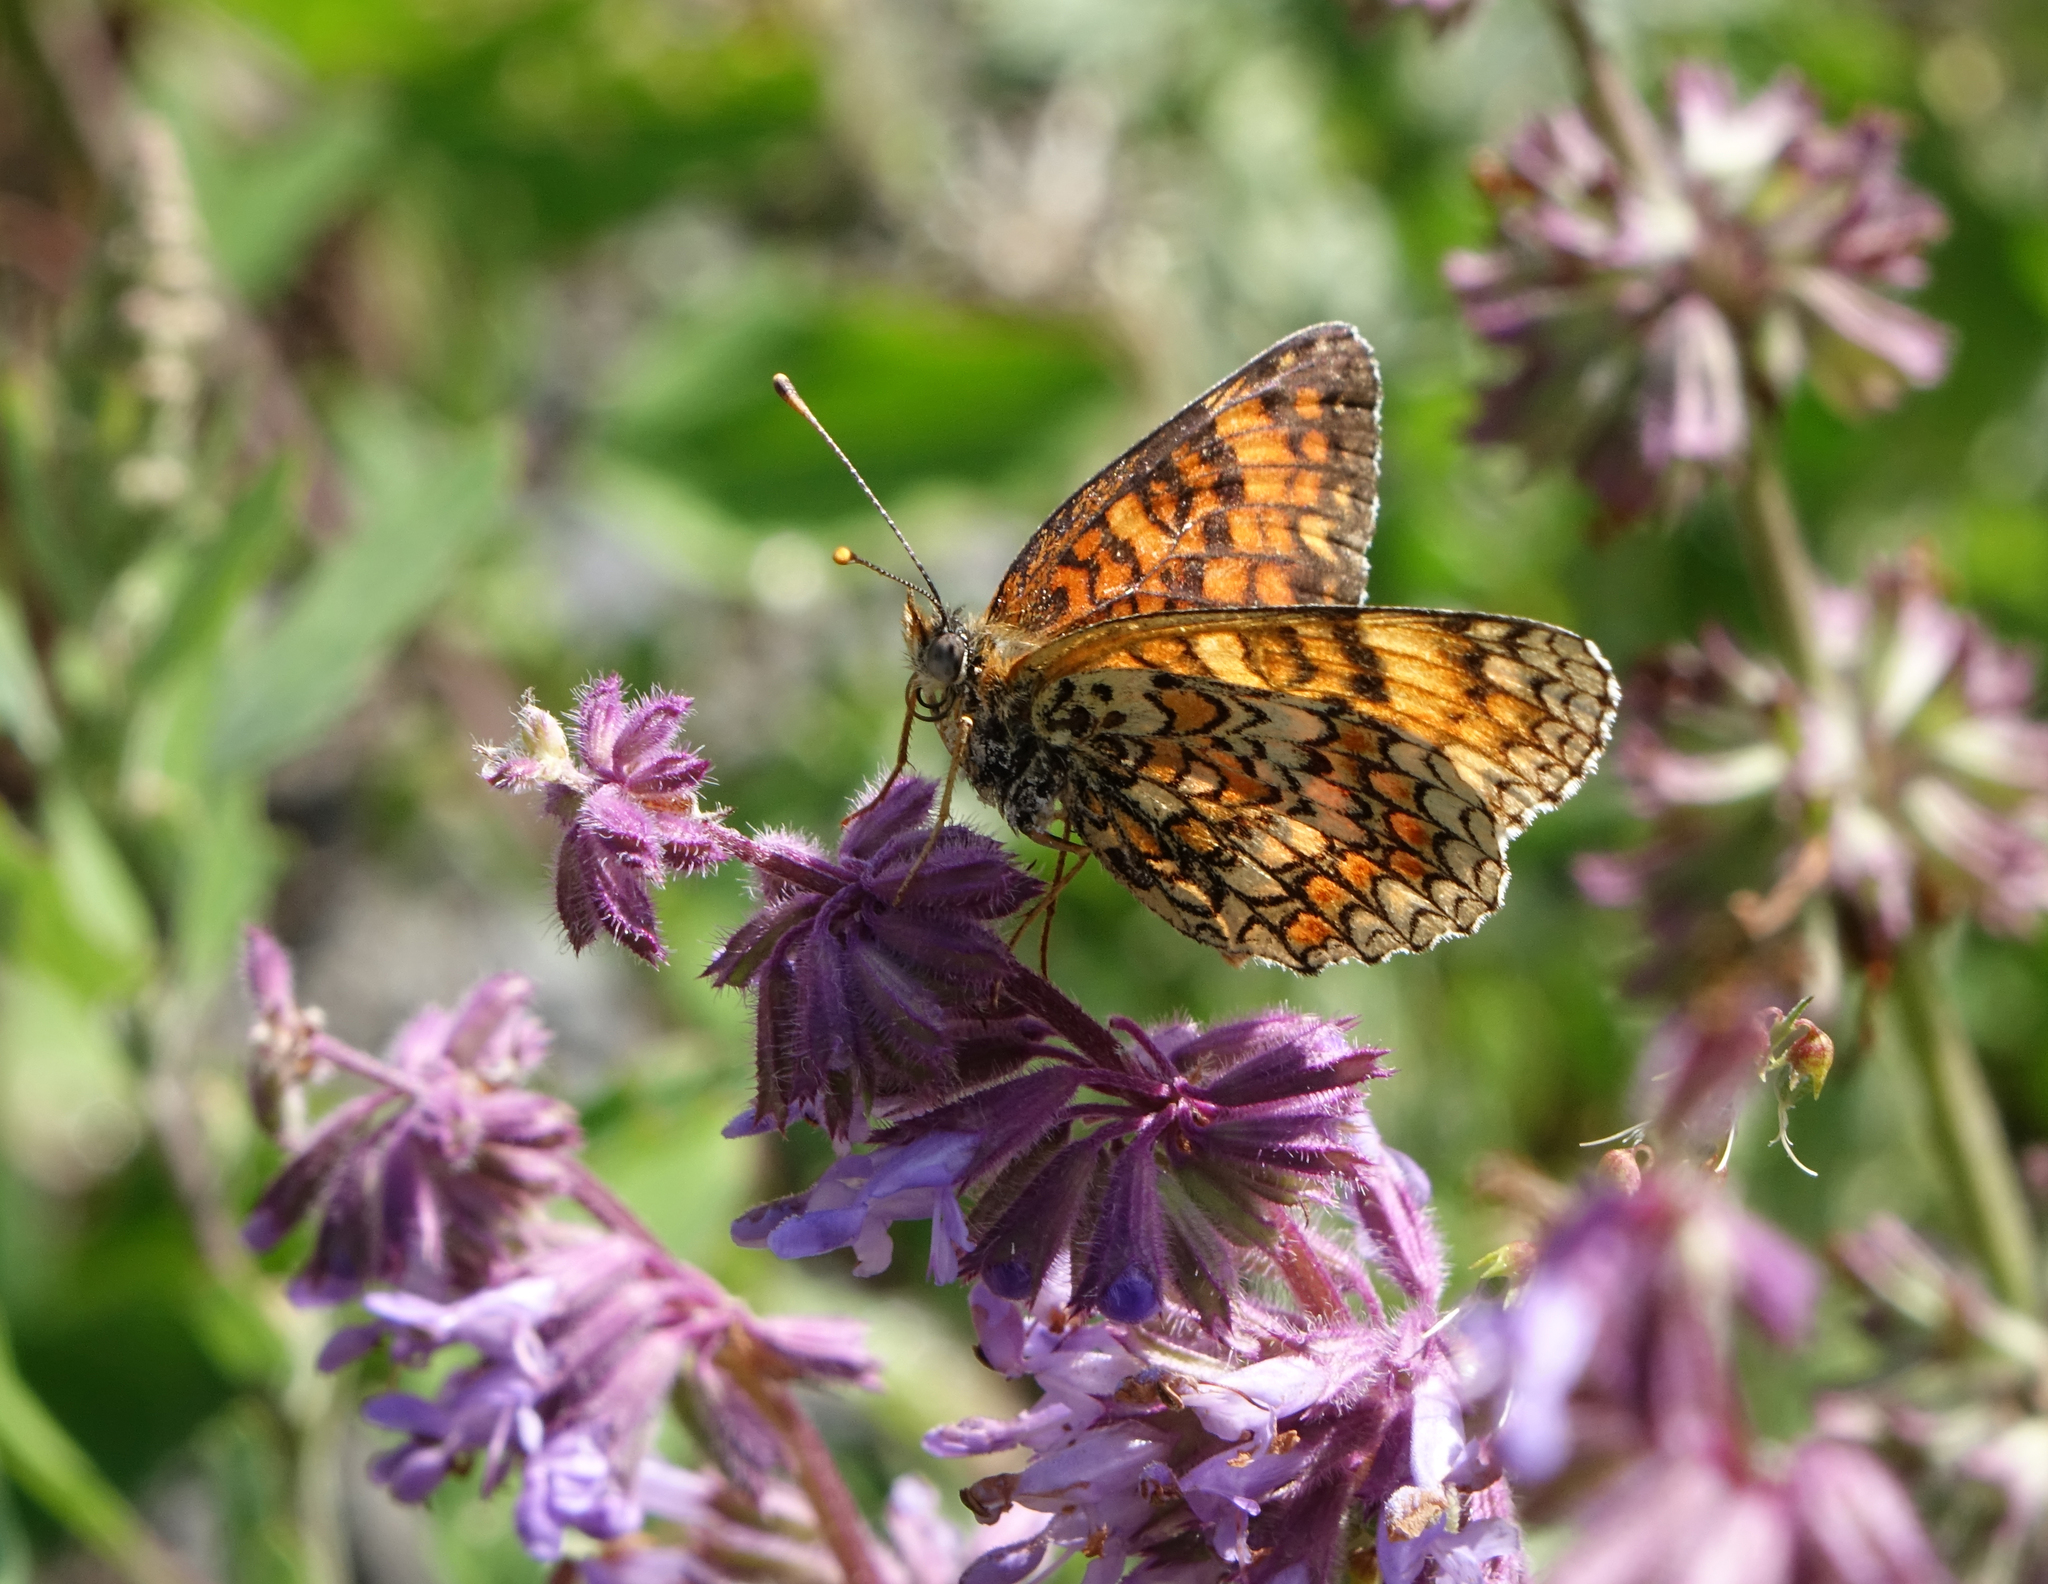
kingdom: Animalia
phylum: Arthropoda
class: Insecta
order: Lepidoptera
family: Nymphalidae
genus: Melitaea
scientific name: Melitaea phoebe
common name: Knapweed fritillary
